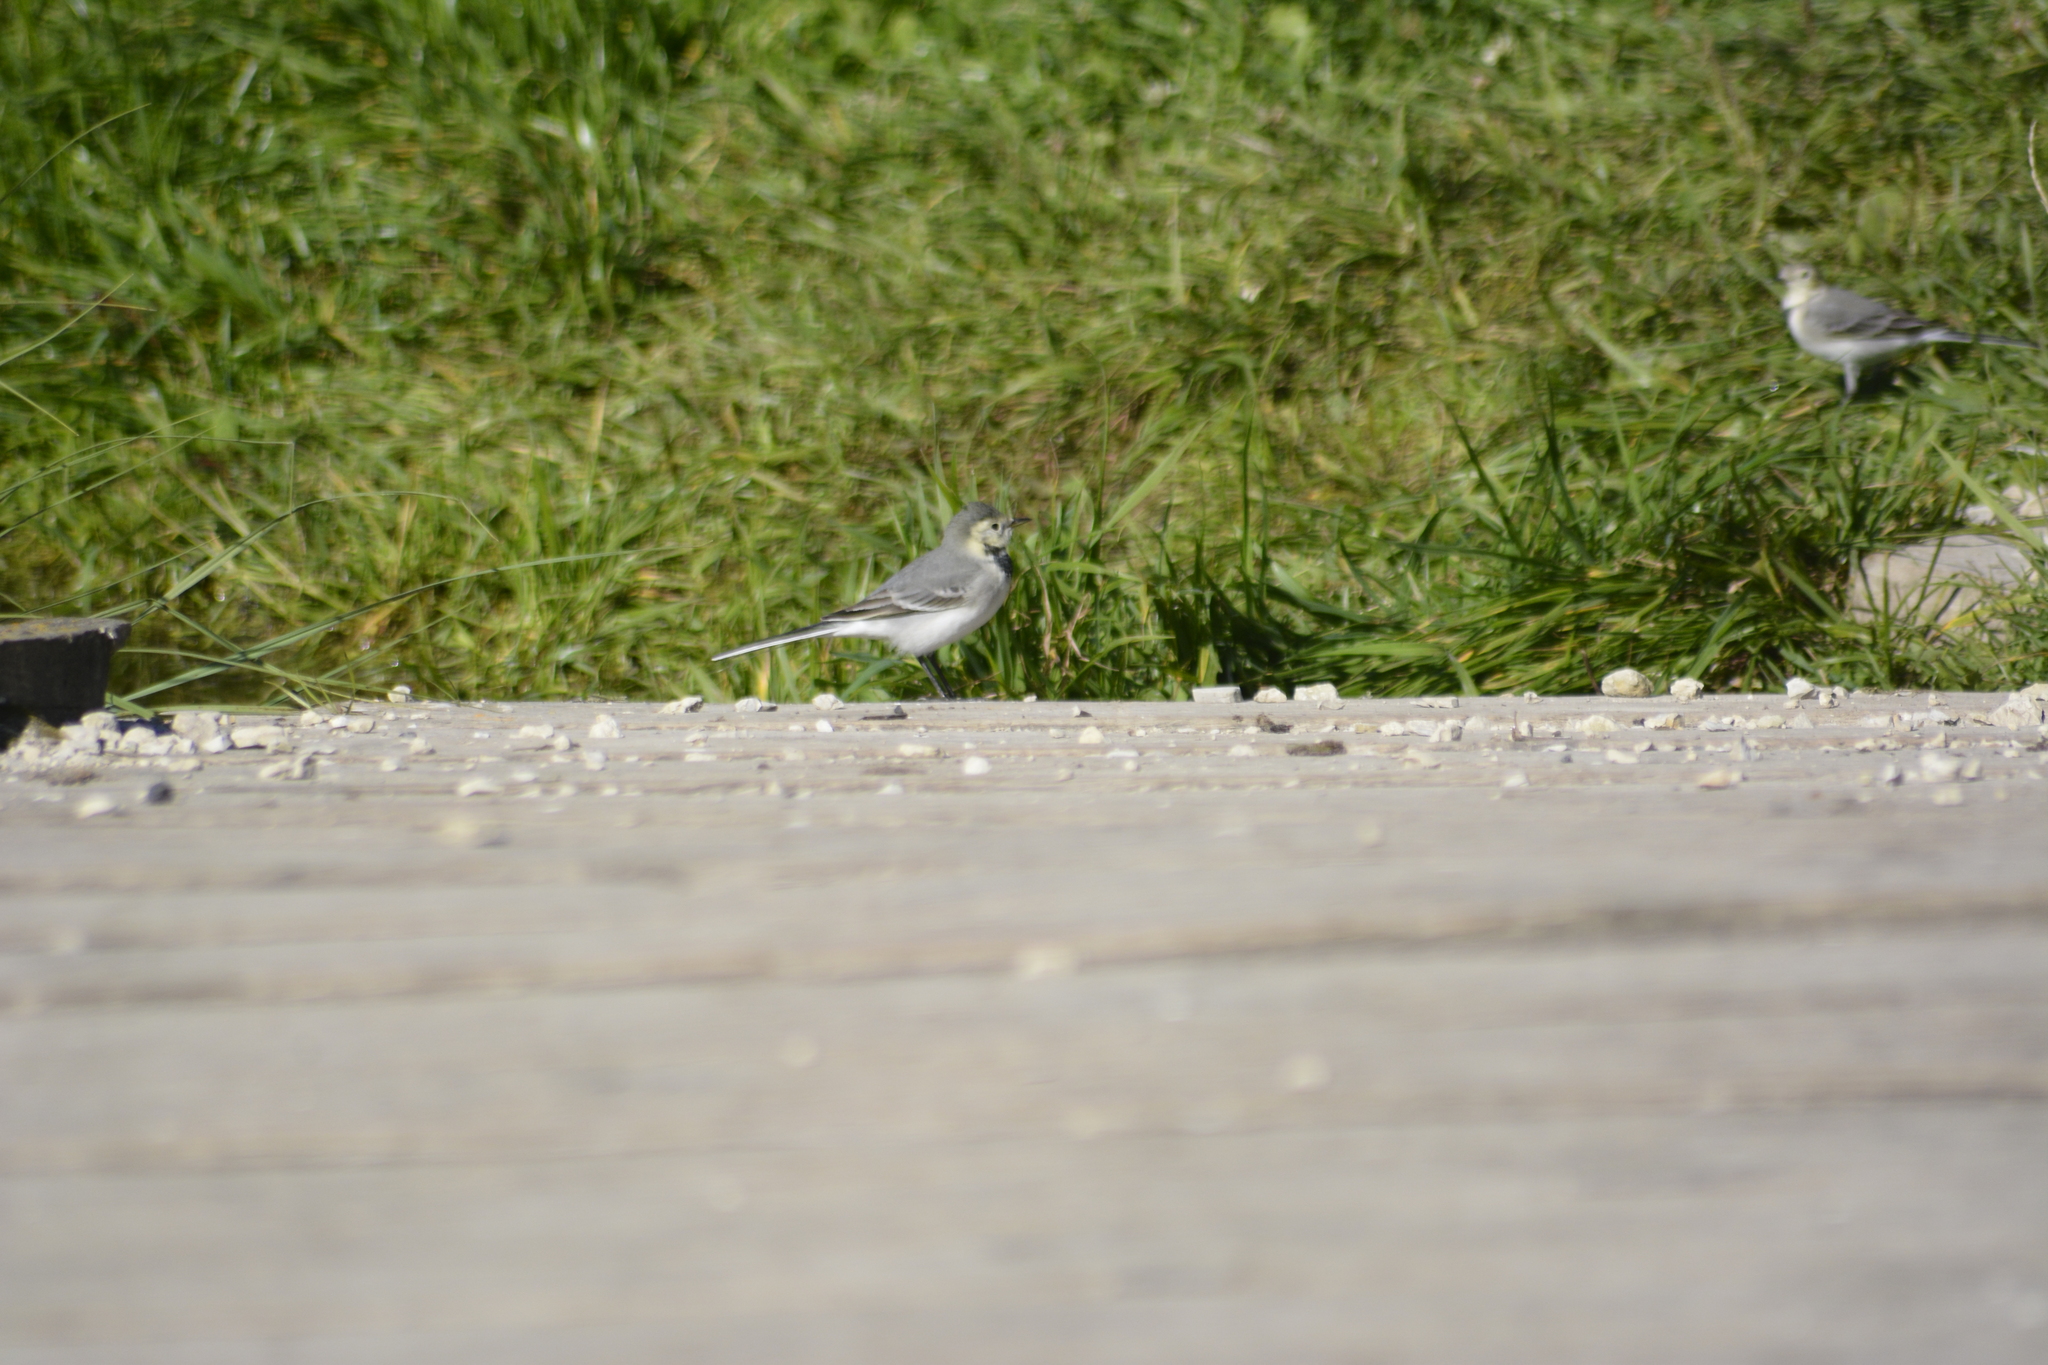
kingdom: Animalia
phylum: Chordata
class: Aves
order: Passeriformes
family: Motacillidae
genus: Motacilla
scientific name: Motacilla alba
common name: White wagtail
